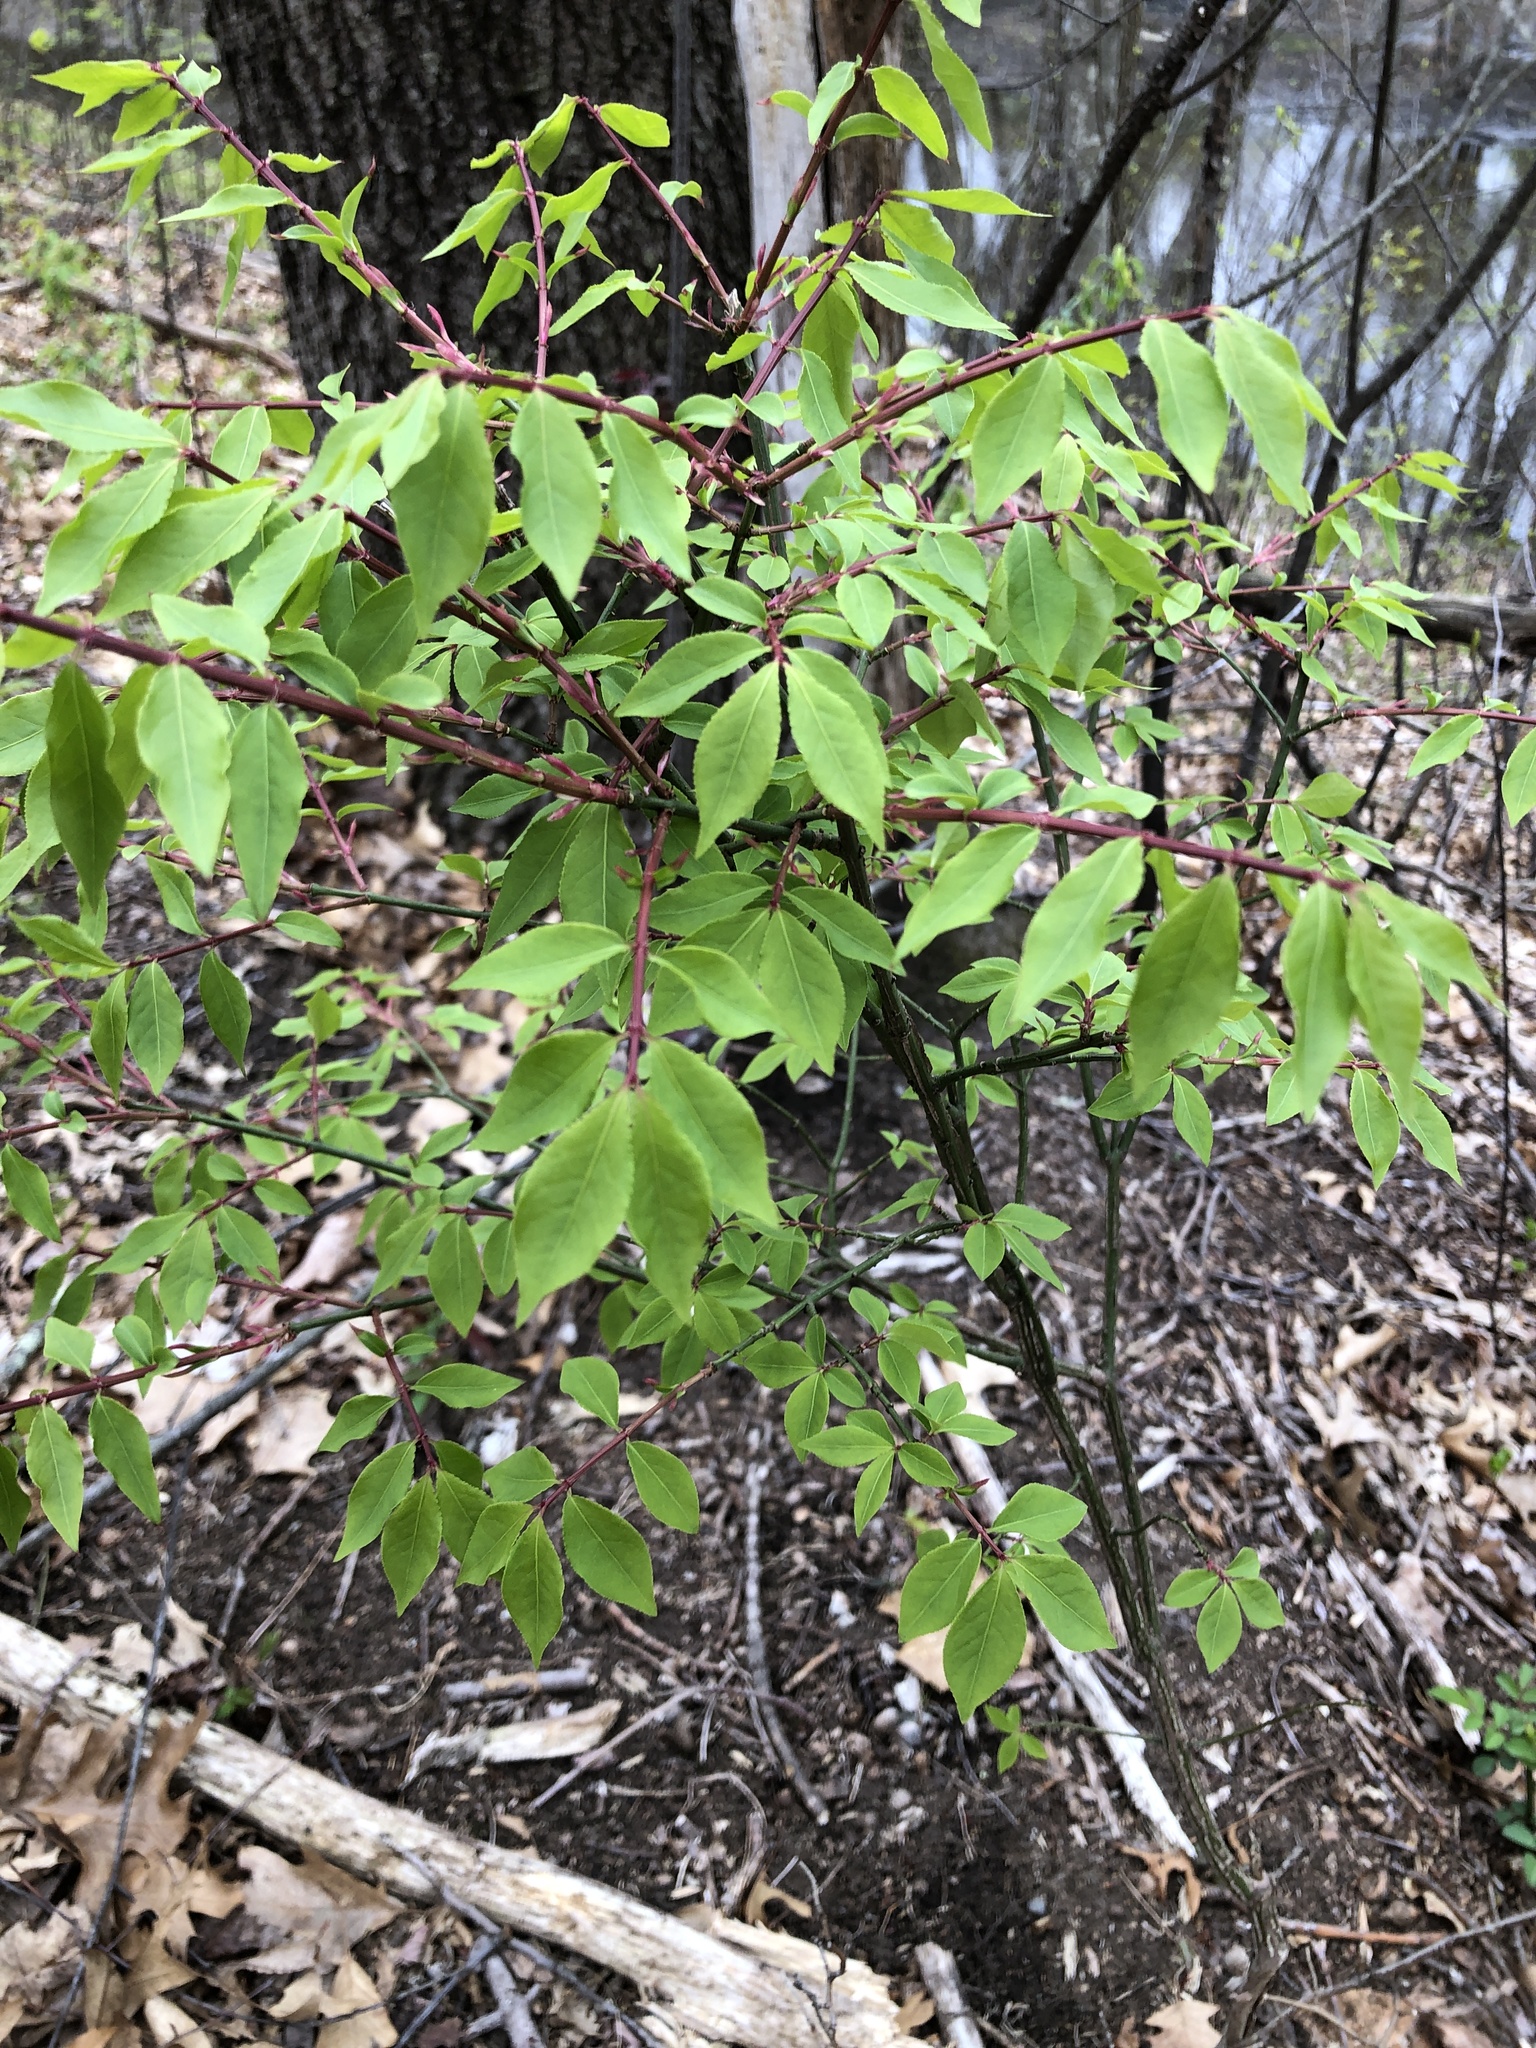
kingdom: Plantae
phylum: Tracheophyta
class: Magnoliopsida
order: Celastrales
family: Celastraceae
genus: Euonymus
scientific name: Euonymus alatus
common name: Winged euonymus
